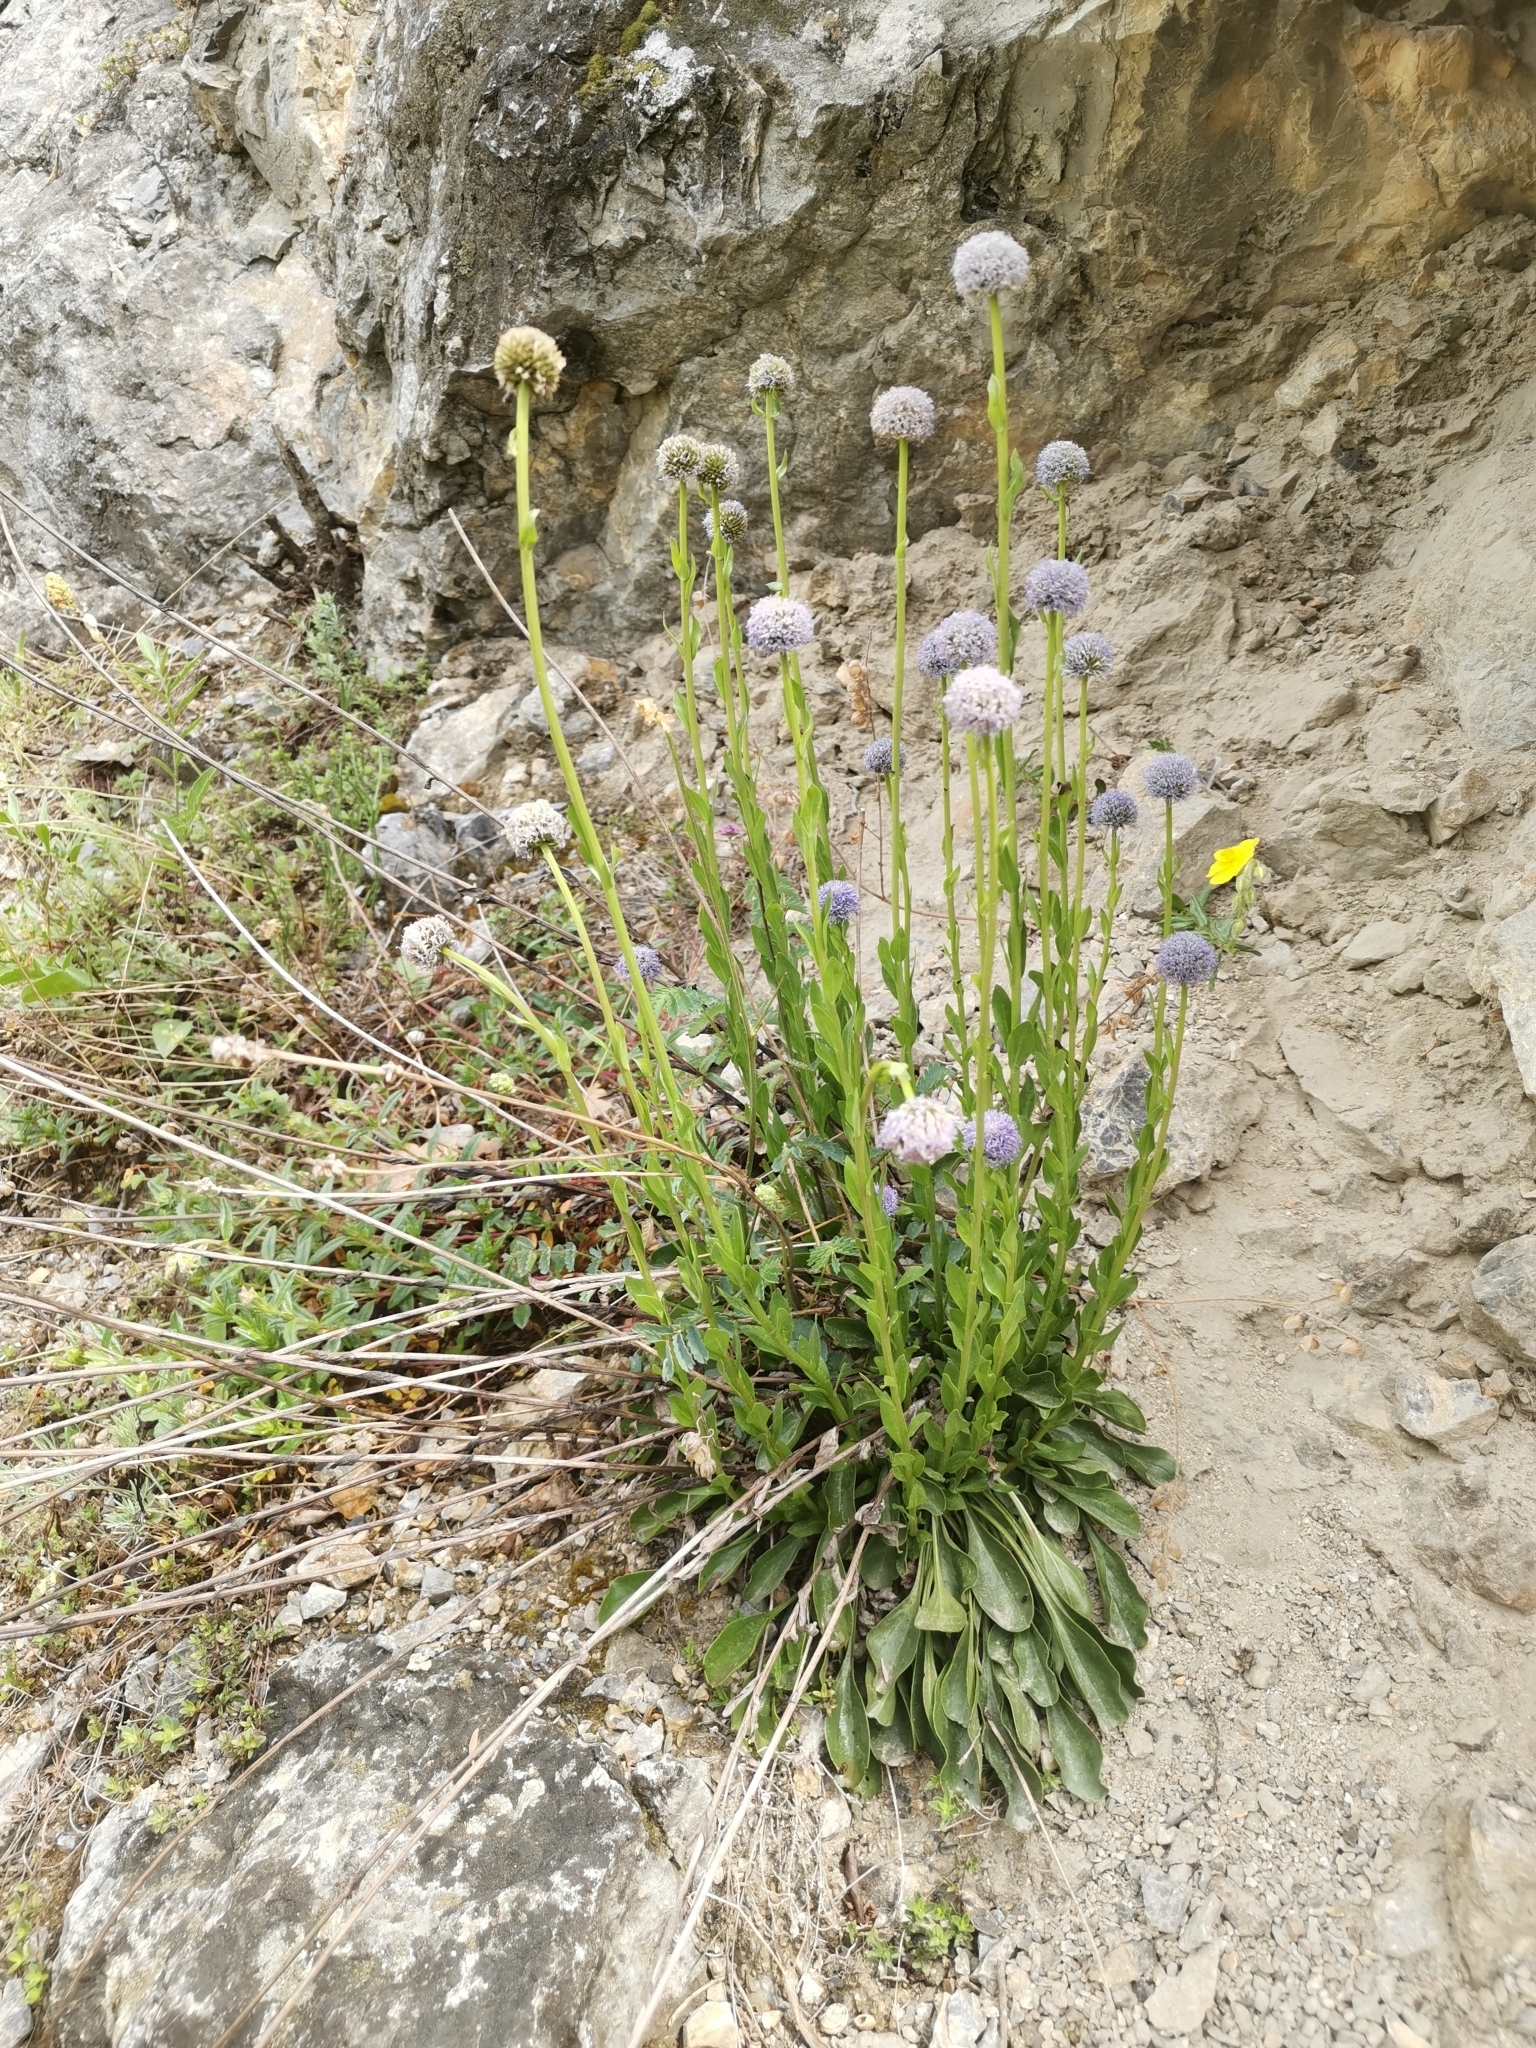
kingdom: Plantae
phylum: Tracheophyta
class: Magnoliopsida
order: Lamiales
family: Plantaginaceae
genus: Globularia
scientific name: Globularia bisnagarica
